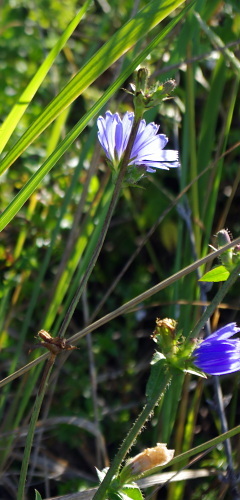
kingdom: Plantae
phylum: Tracheophyta
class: Magnoliopsida
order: Asterales
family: Asteraceae
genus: Cichorium
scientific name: Cichorium intybus
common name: Chicory
